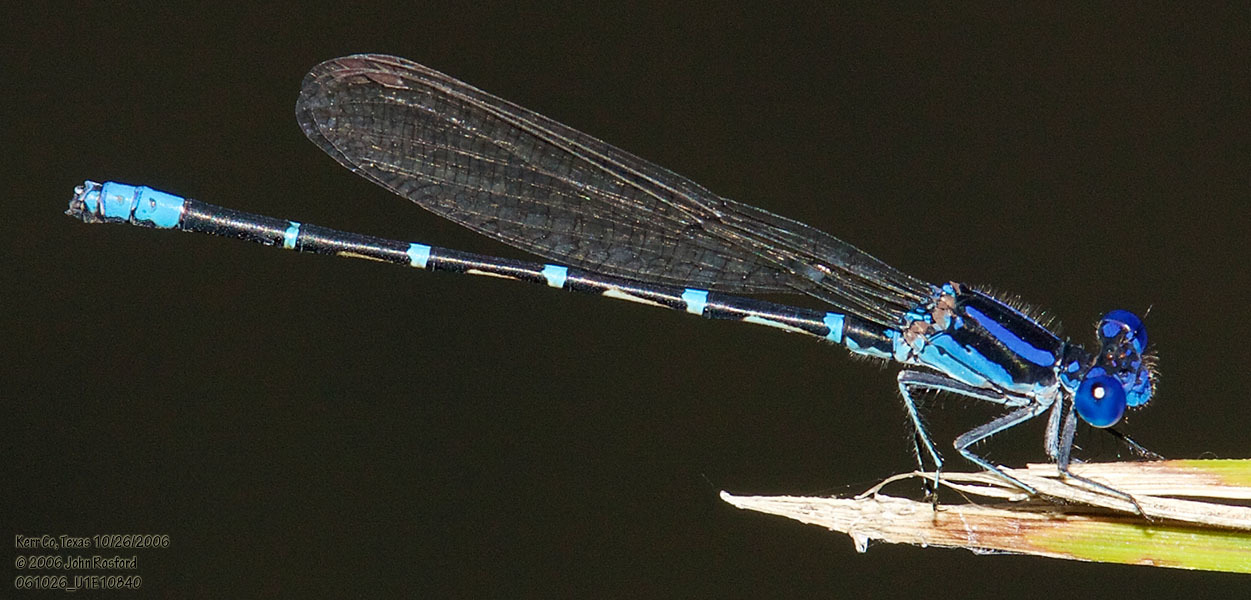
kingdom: Animalia
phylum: Arthropoda
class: Insecta
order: Odonata
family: Coenagrionidae
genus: Argia
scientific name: Argia sedula
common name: Blue-ringed dancer
